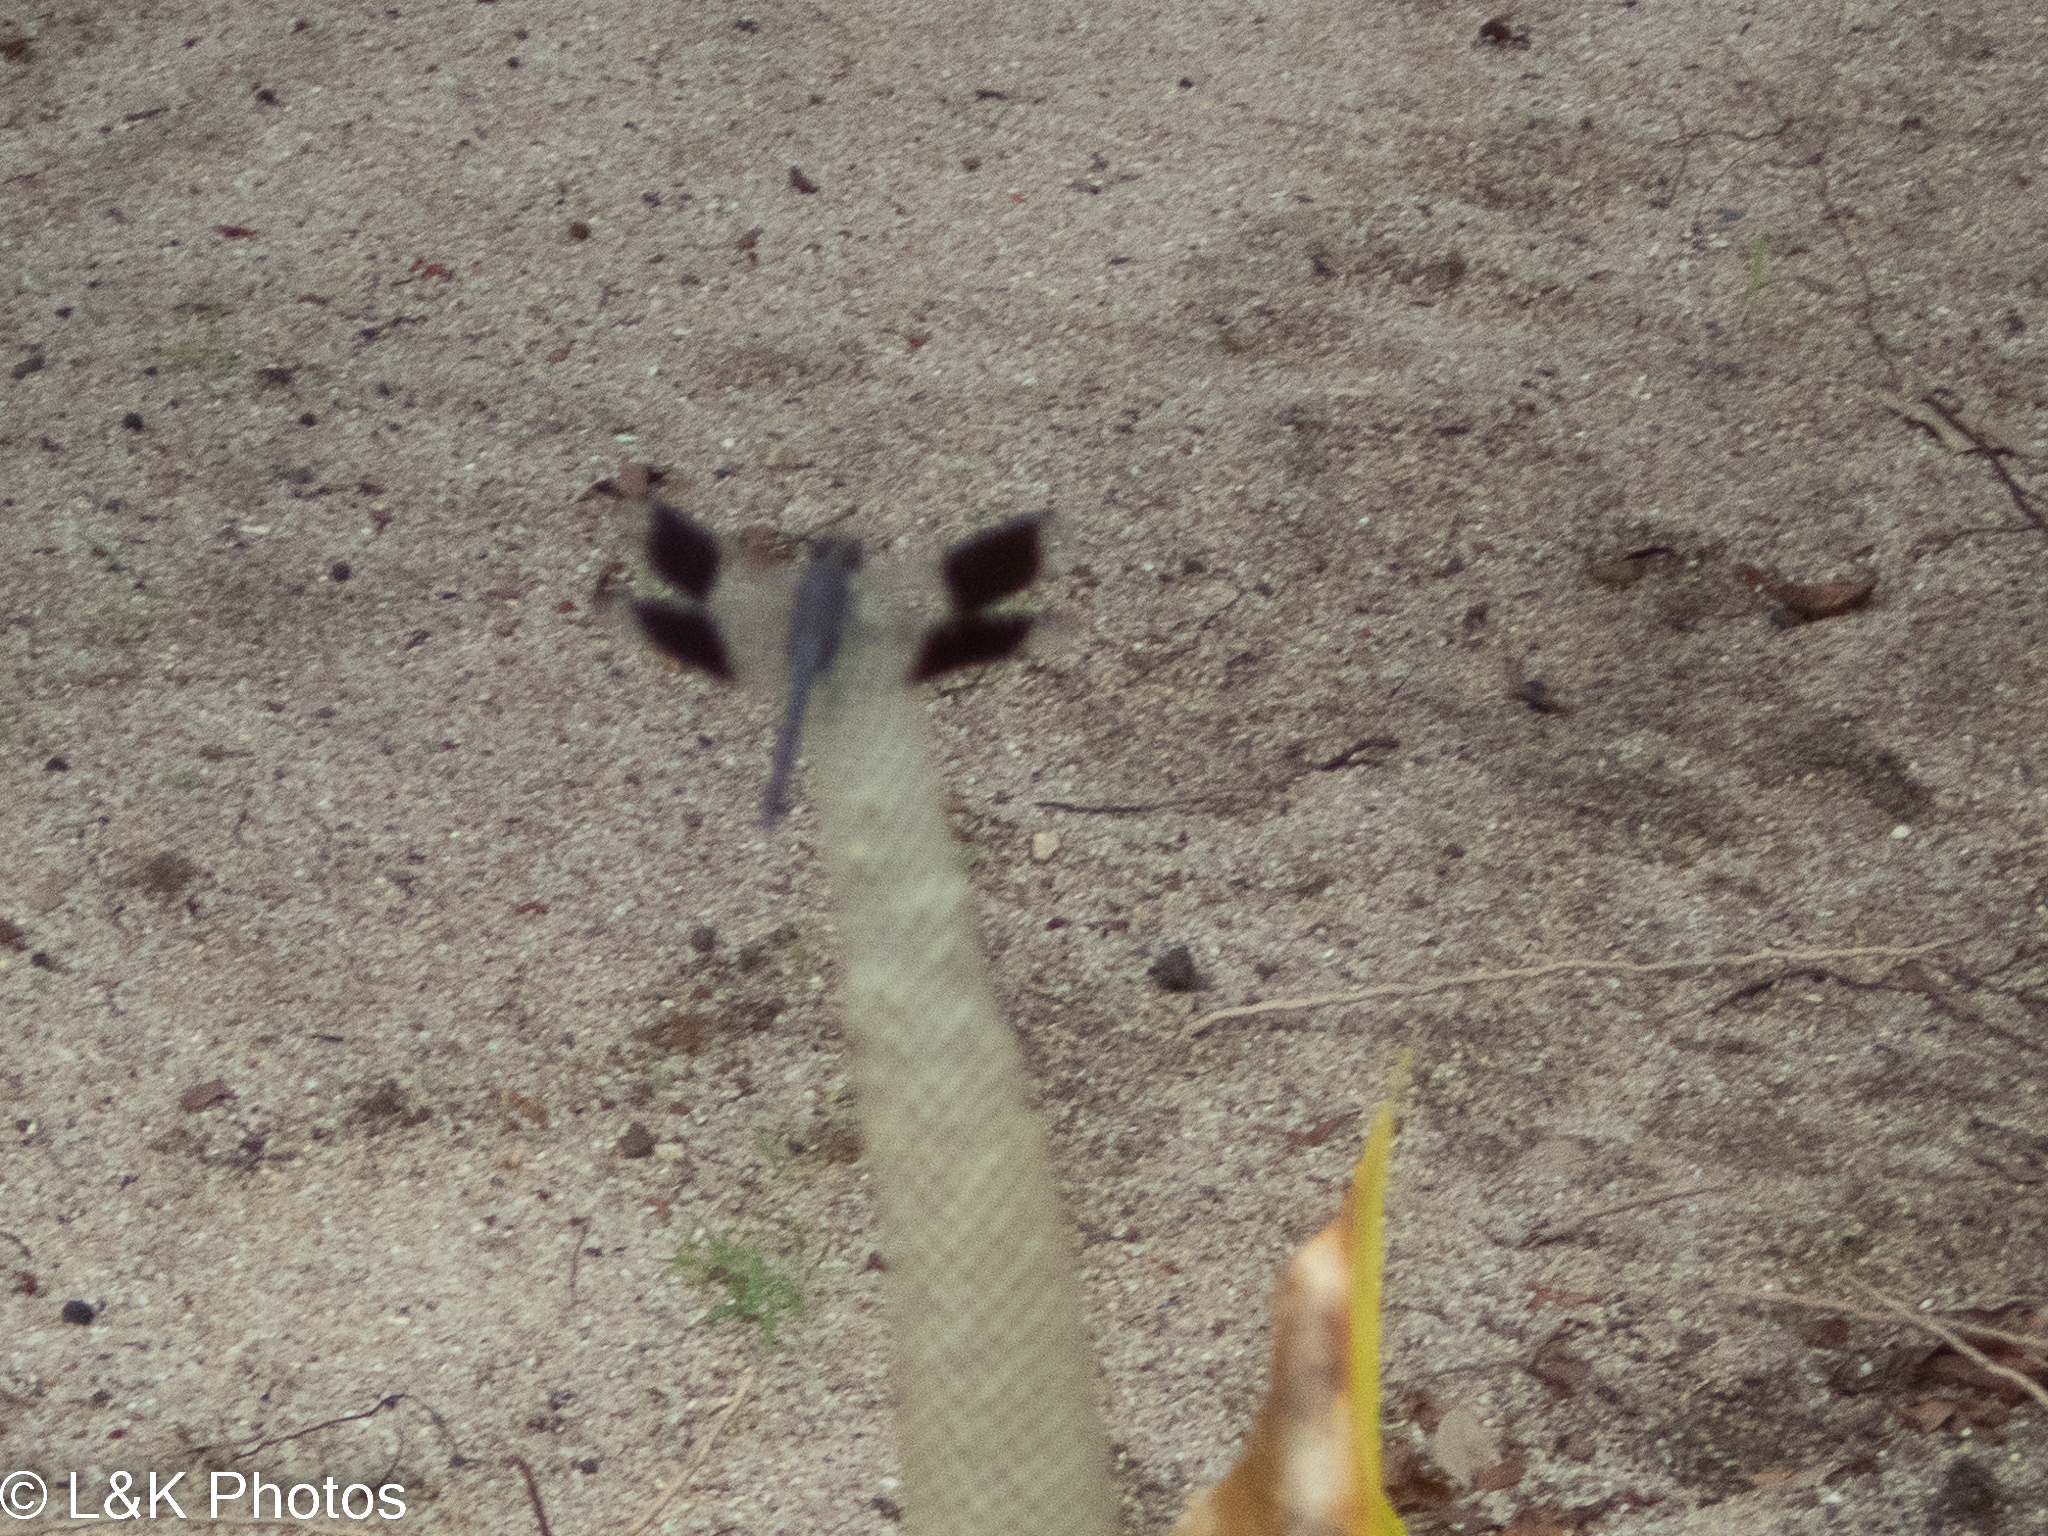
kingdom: Animalia
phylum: Arthropoda
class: Insecta
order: Odonata
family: Libellulidae
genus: Erythrodiplax
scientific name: Erythrodiplax umbrata
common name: Band-winged dragonlet
